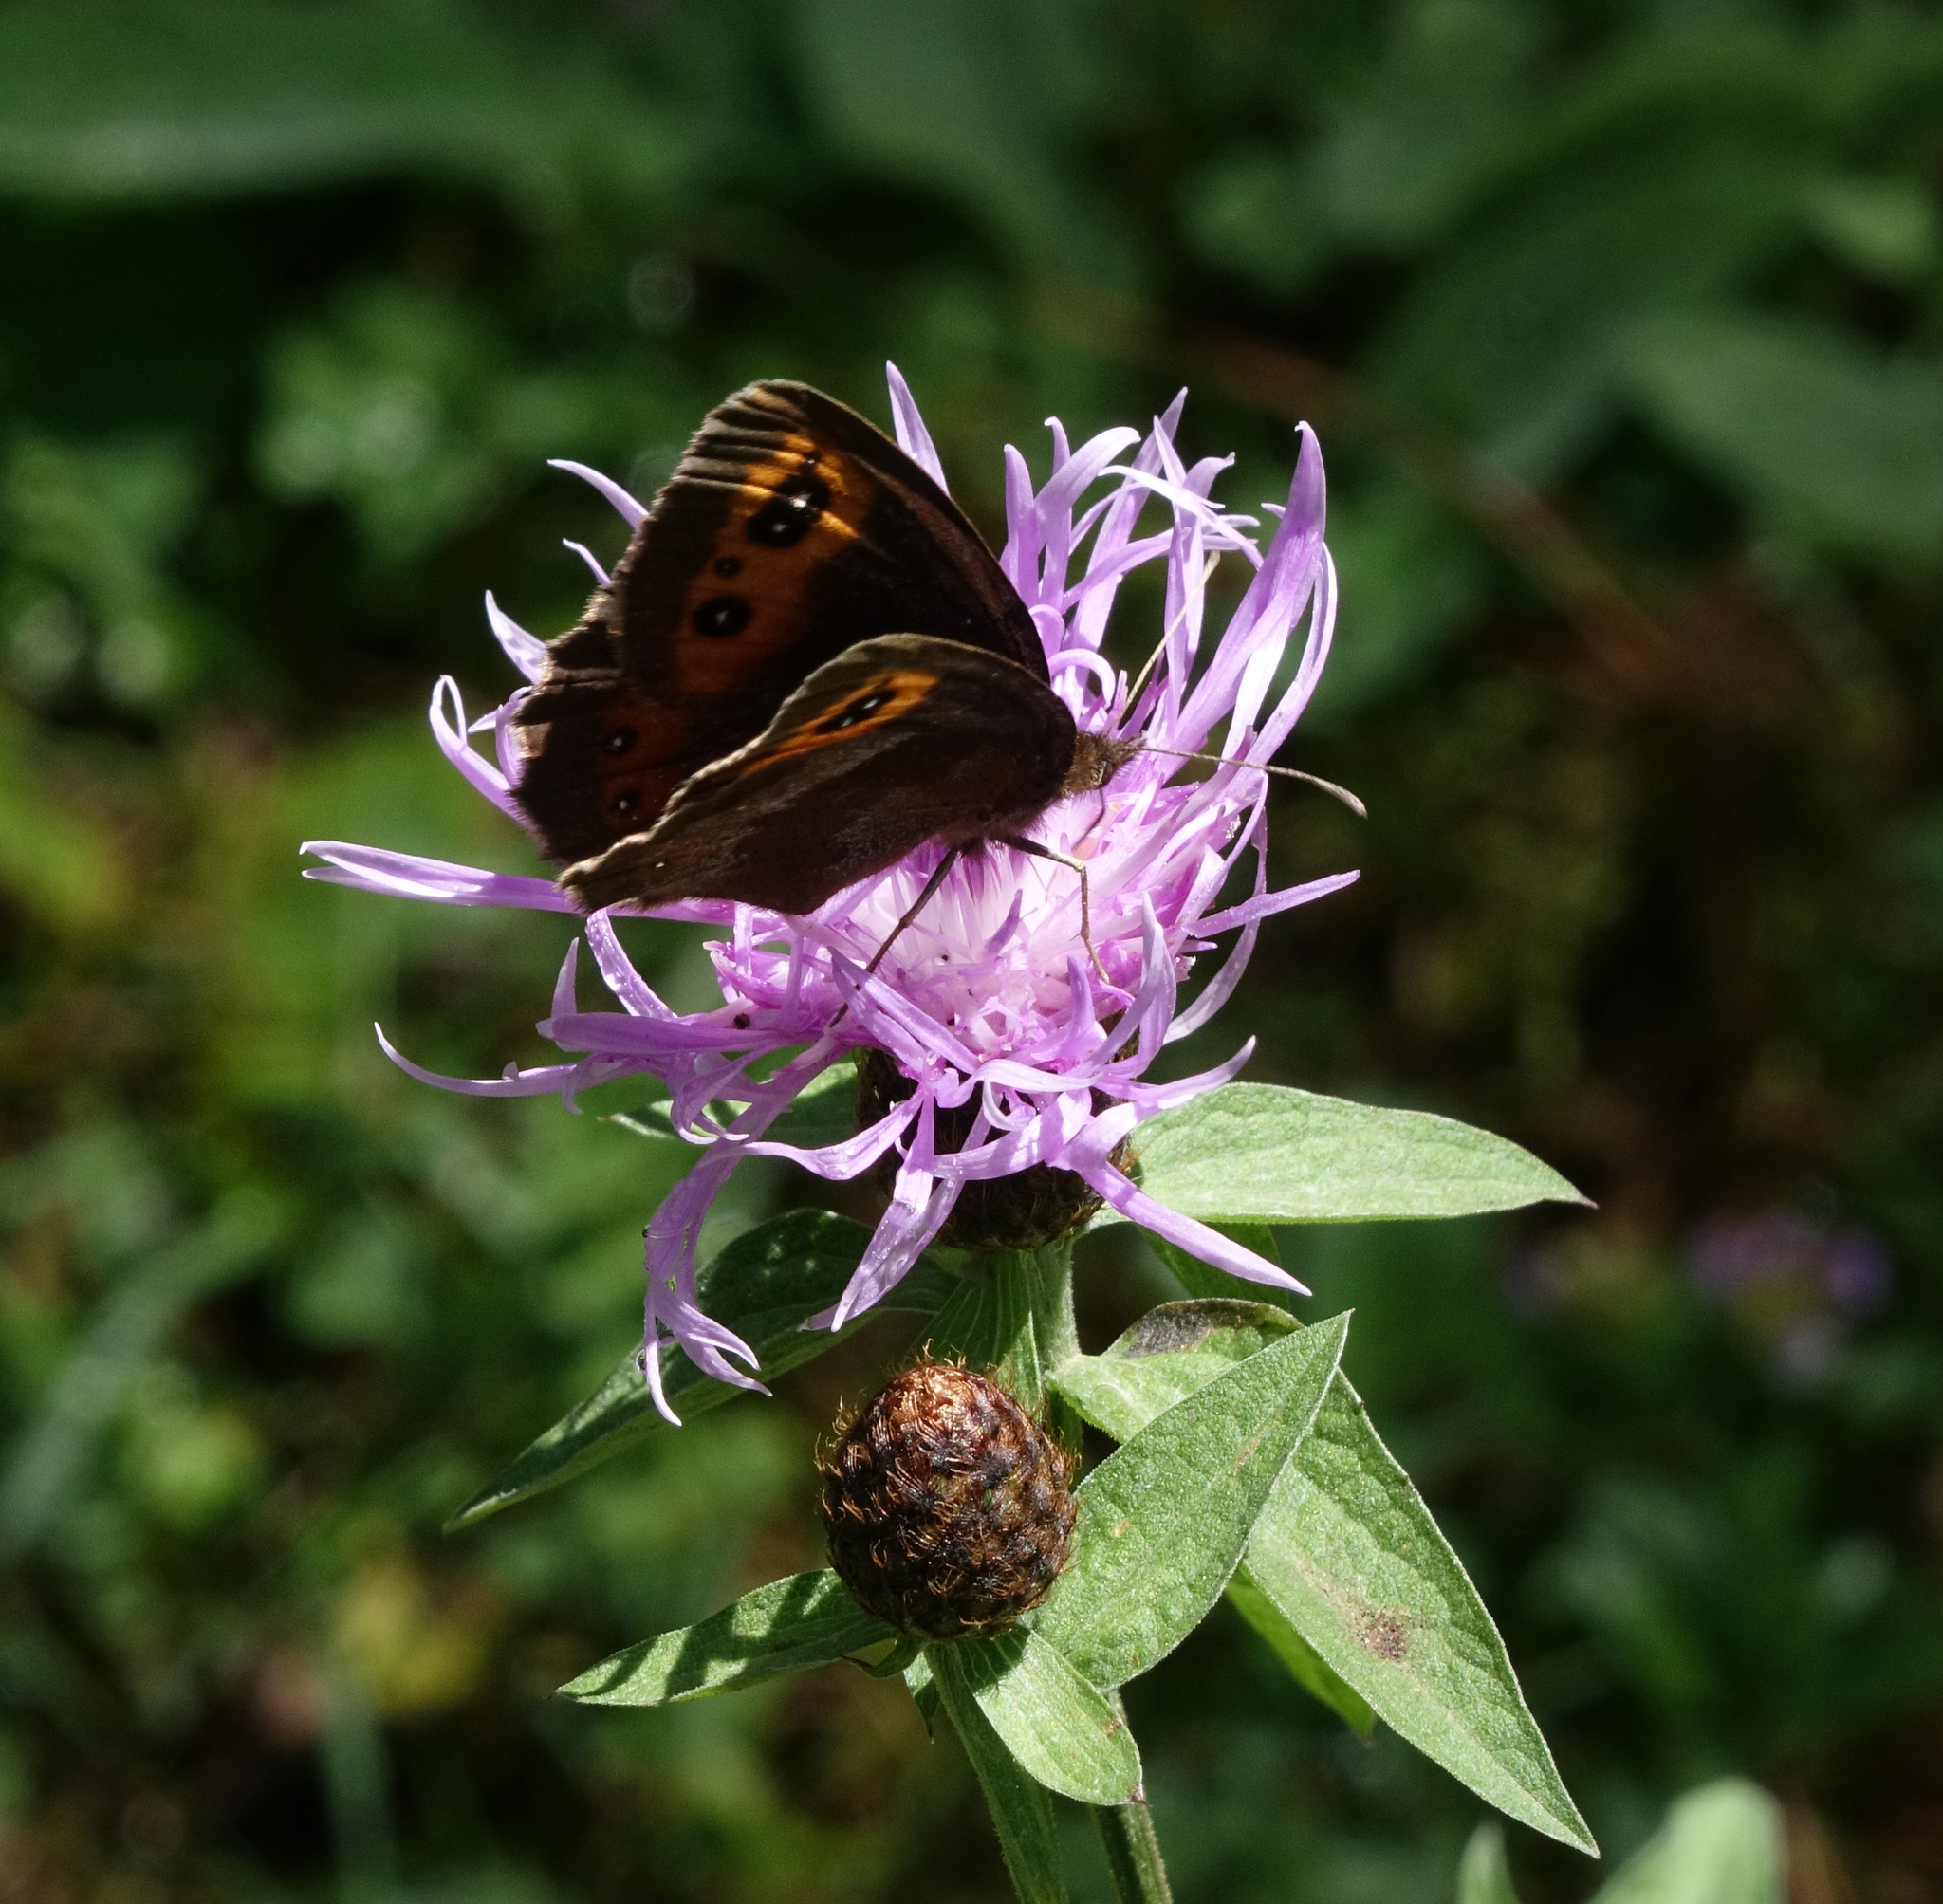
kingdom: Animalia
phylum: Arthropoda
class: Insecta
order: Lepidoptera
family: Nymphalidae
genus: Erebia
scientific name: Erebia aethiops
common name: Scotch argus
